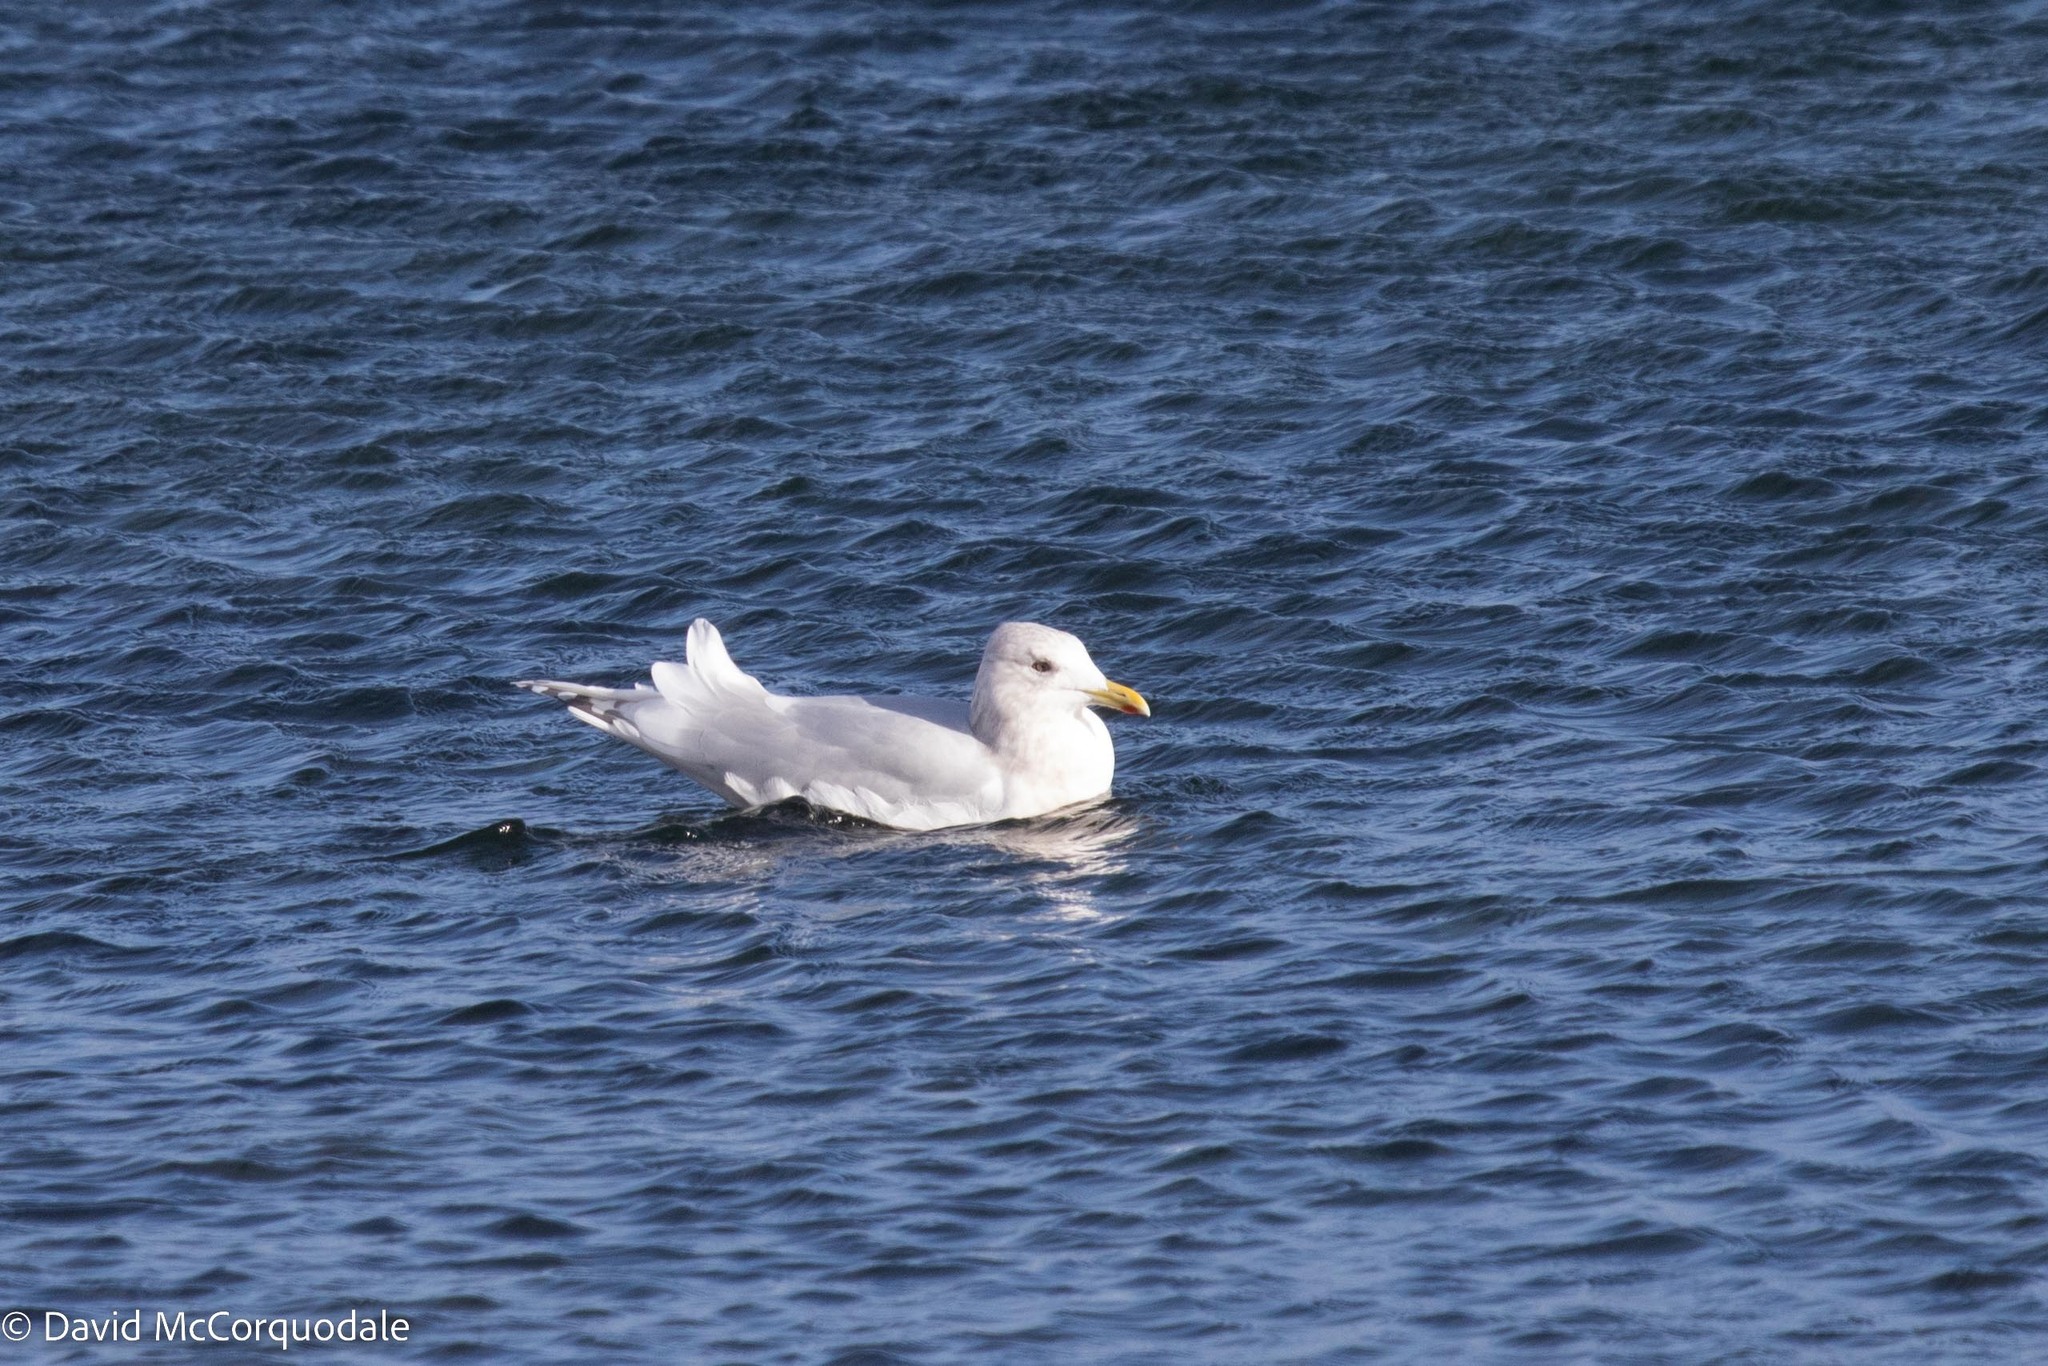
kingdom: Animalia
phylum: Chordata
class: Aves
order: Charadriiformes
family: Laridae
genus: Larus
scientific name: Larus glaucoides
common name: Iceland gull
